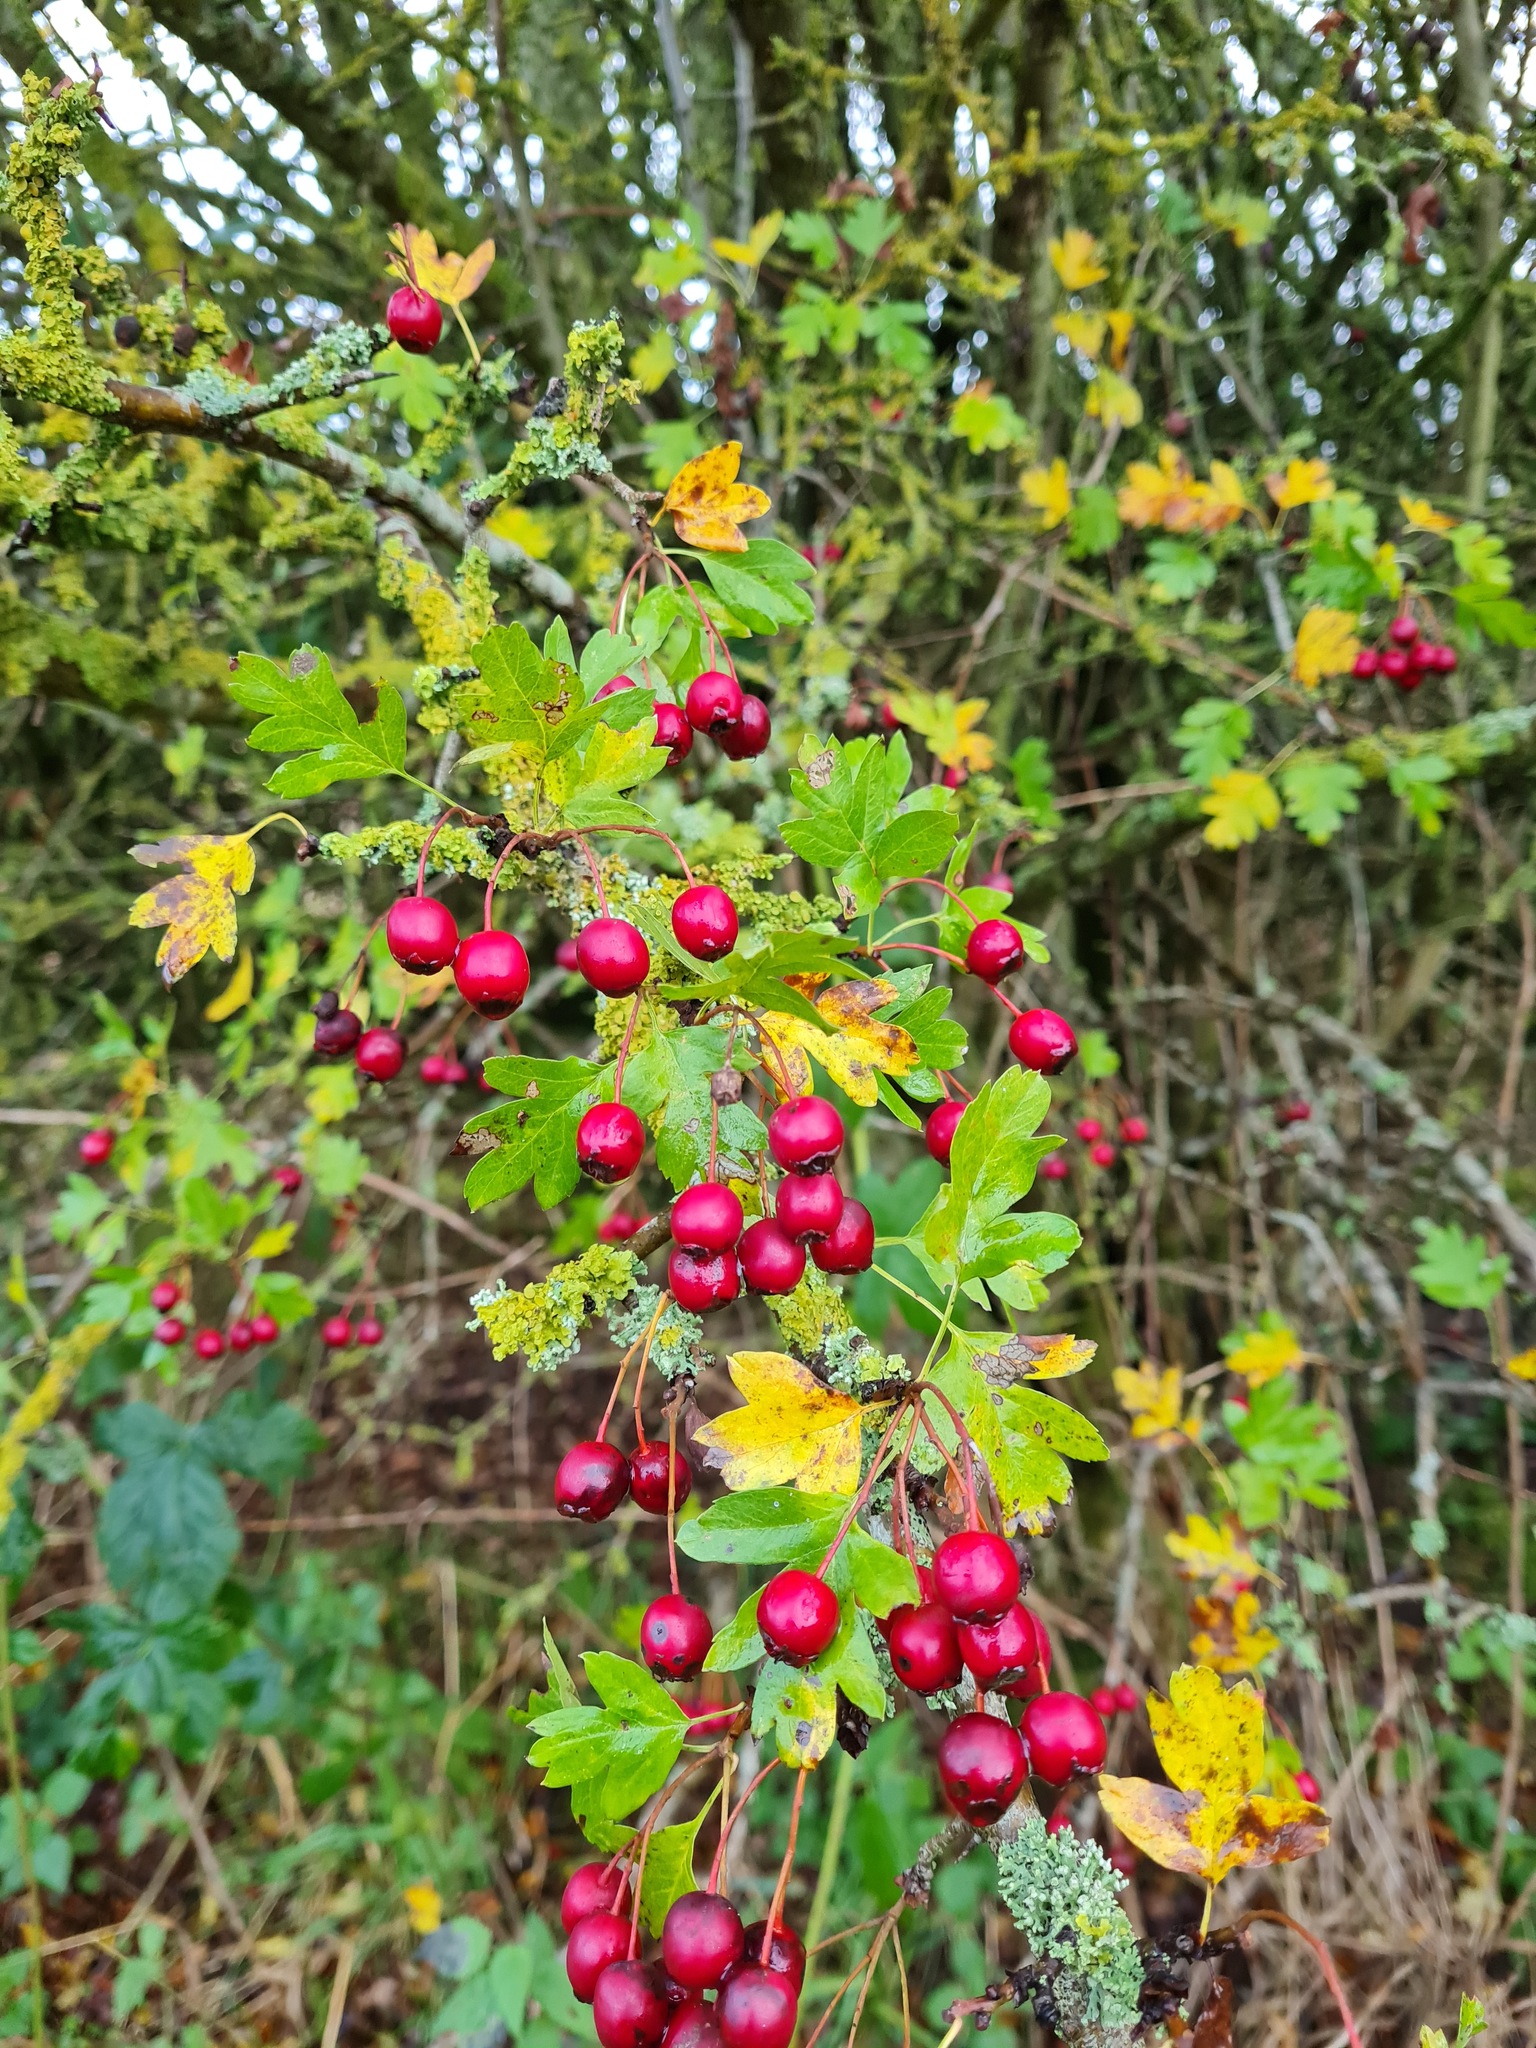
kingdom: Plantae
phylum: Tracheophyta
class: Magnoliopsida
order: Rosales
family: Rosaceae
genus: Crataegus
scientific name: Crataegus monogyna
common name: Hawthorn
